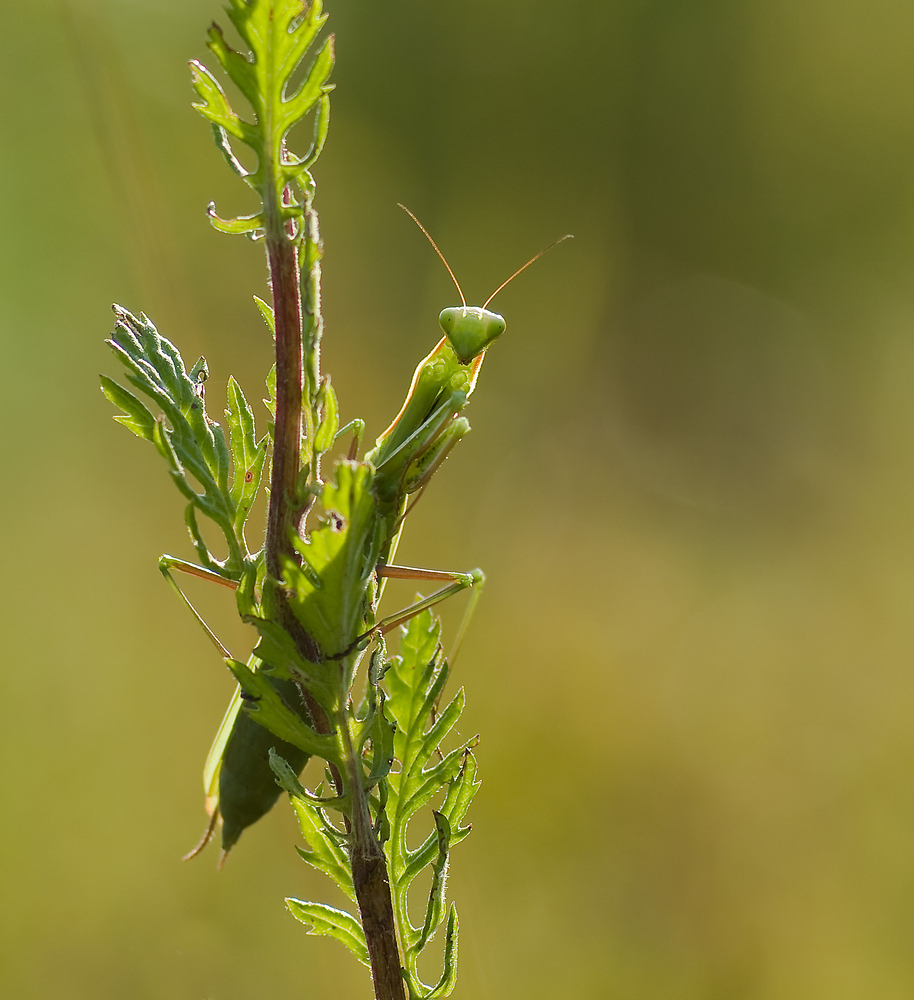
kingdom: Animalia
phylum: Arthropoda
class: Insecta
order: Mantodea
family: Mantidae
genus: Mantis
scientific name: Mantis religiosa
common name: Praying mantis
